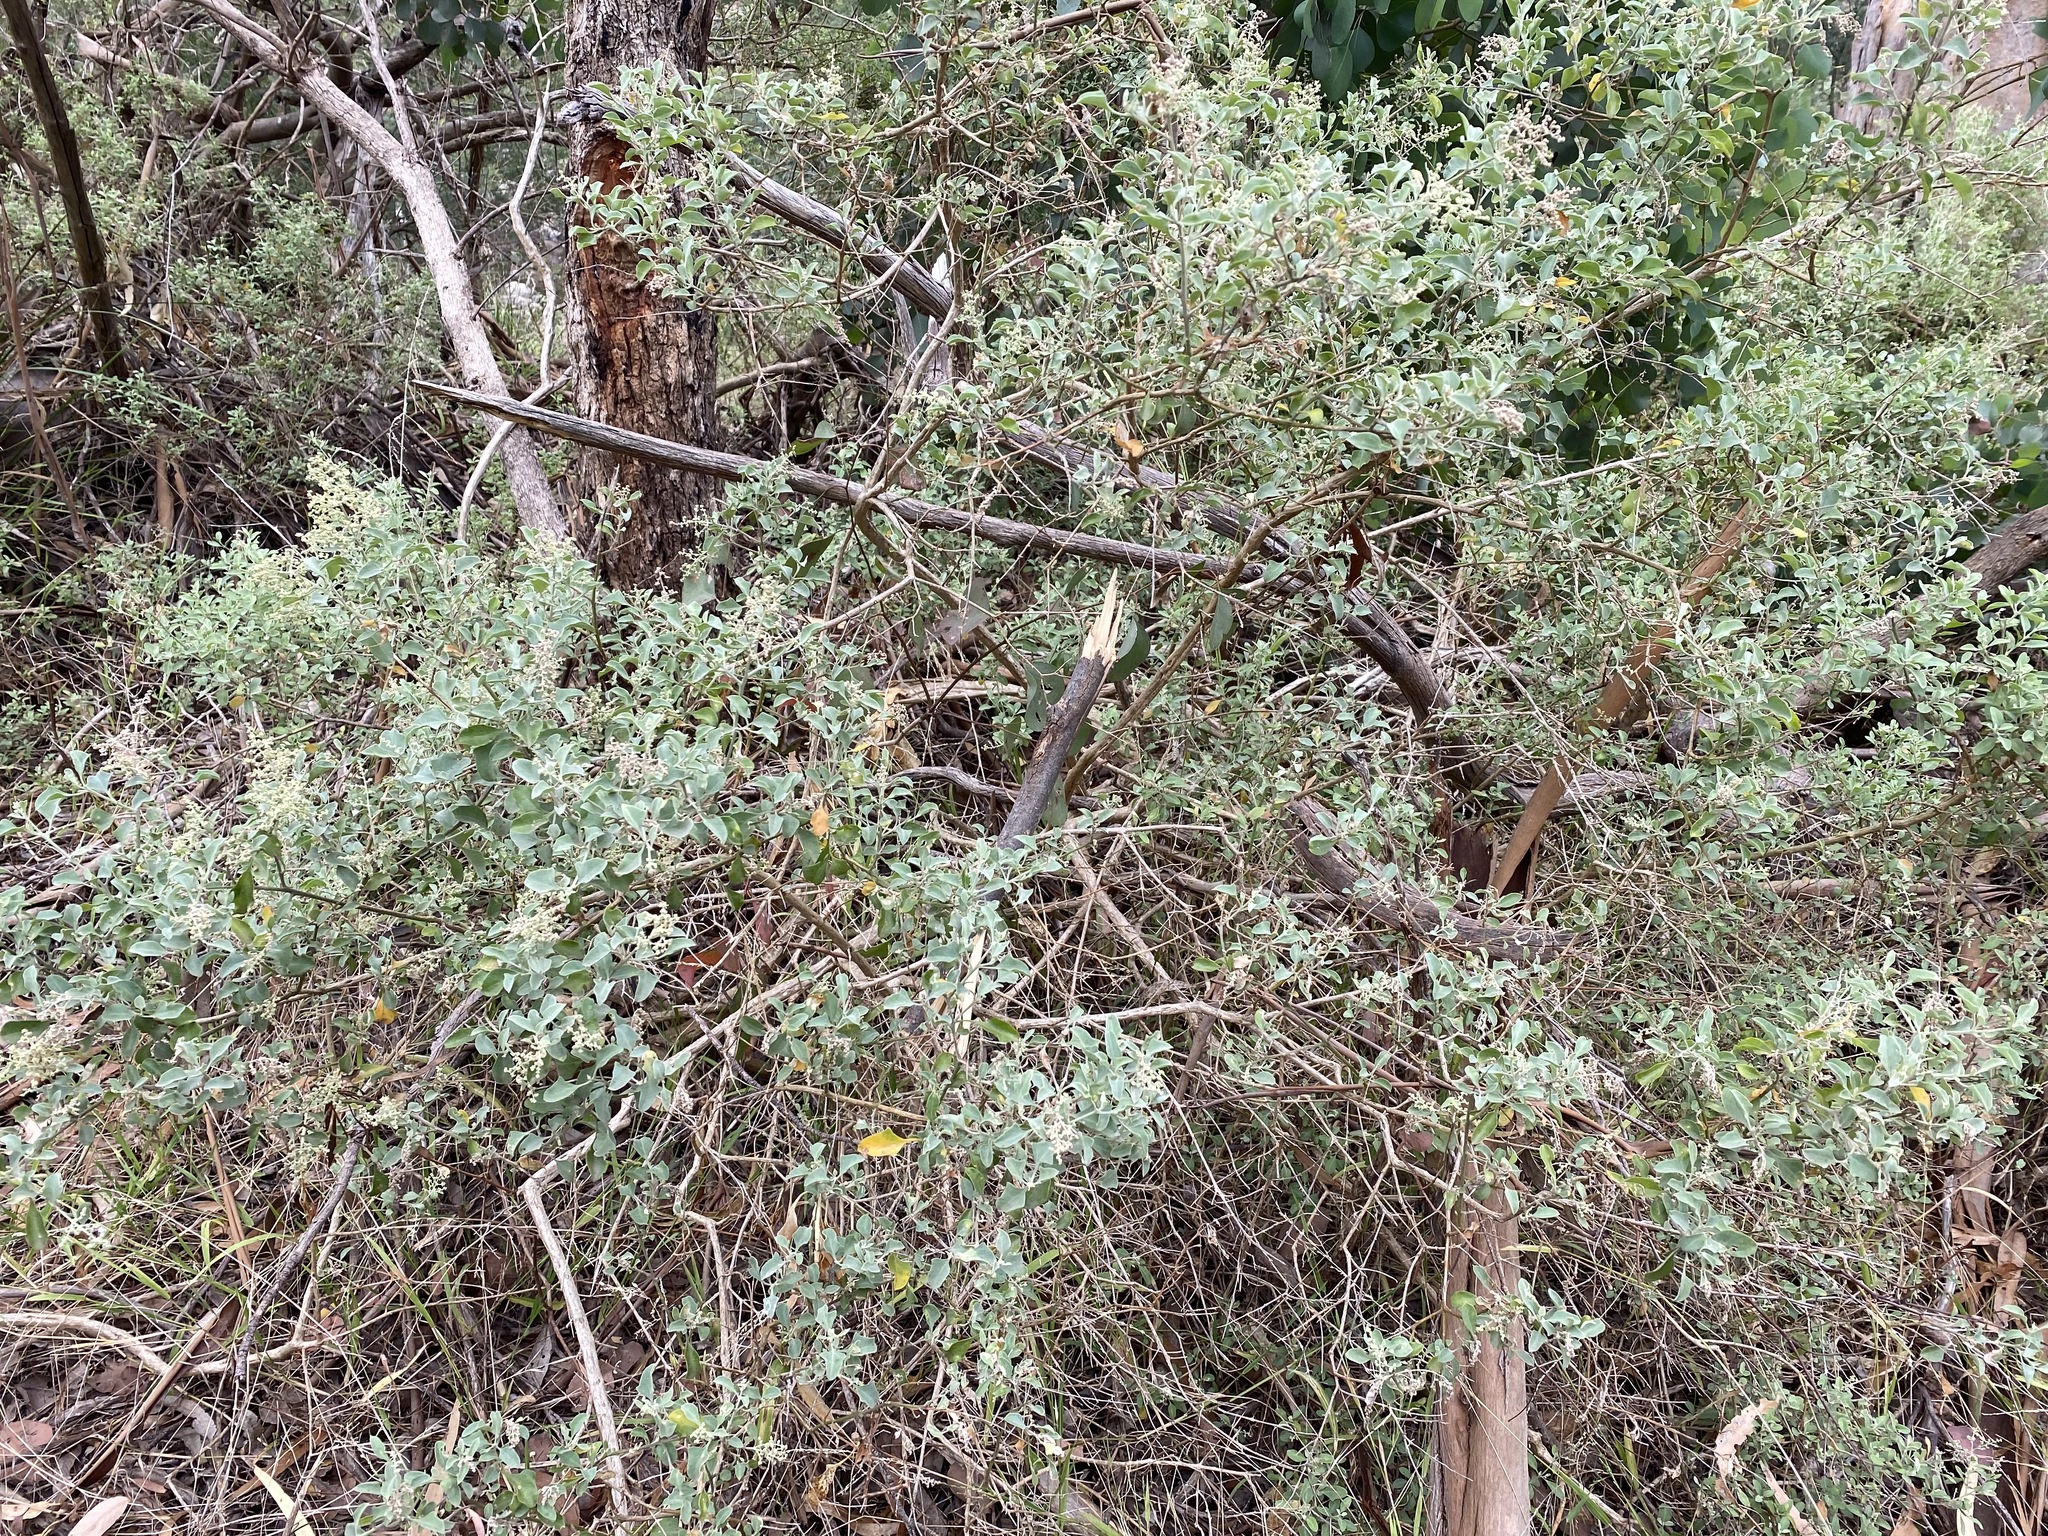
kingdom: Plantae
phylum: Tracheophyta
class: Magnoliopsida
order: Caryophyllales
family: Amaranthaceae
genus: Chenopodium
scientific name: Chenopodium parabolicum
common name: Old-man-saltbush
